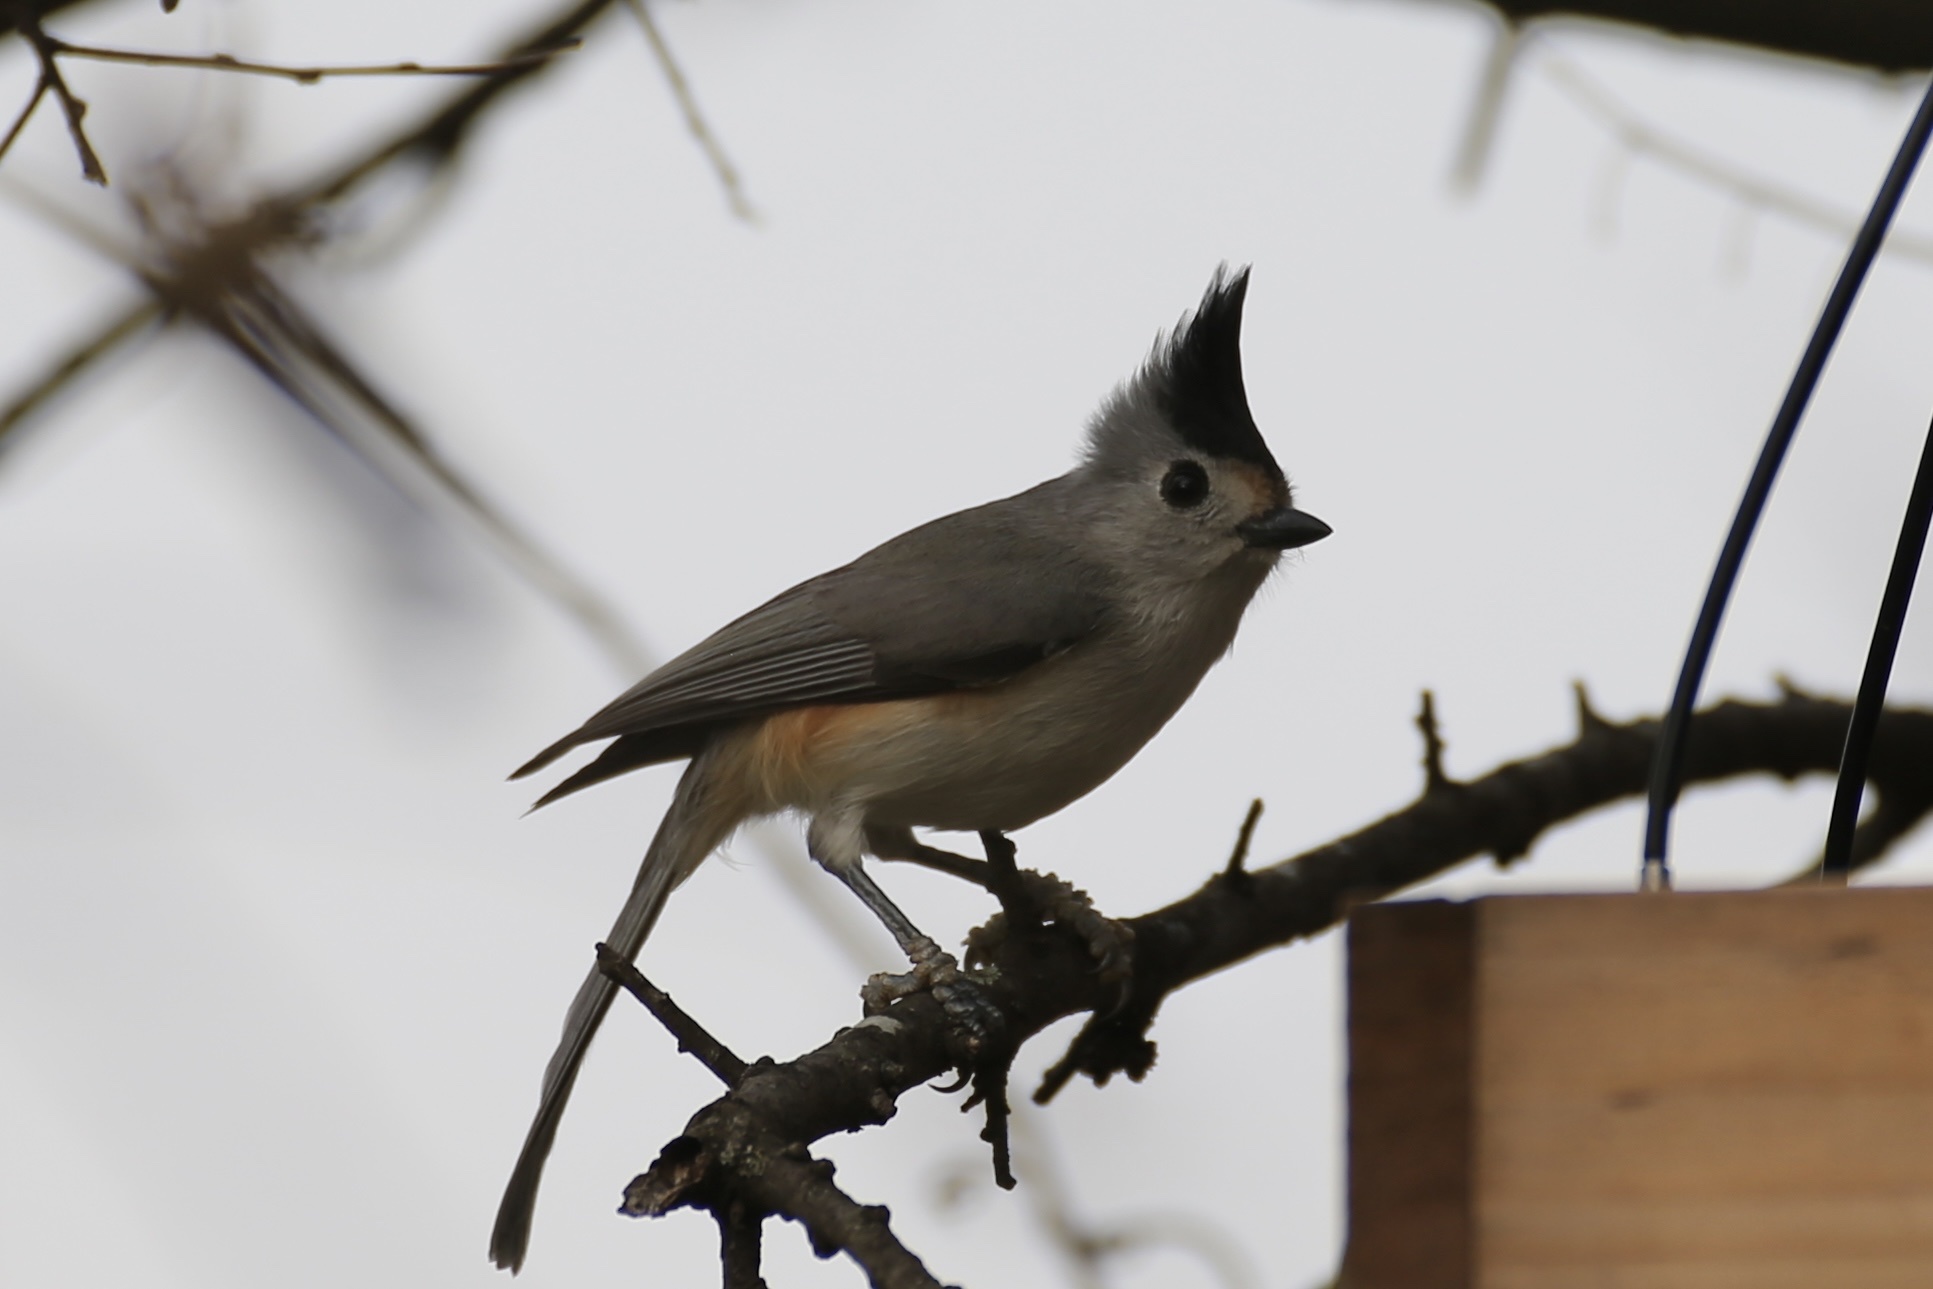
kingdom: Animalia
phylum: Chordata
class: Aves
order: Passeriformes
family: Paridae
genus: Baeolophus
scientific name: Baeolophus atricristatus
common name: Black-crested titmouse
